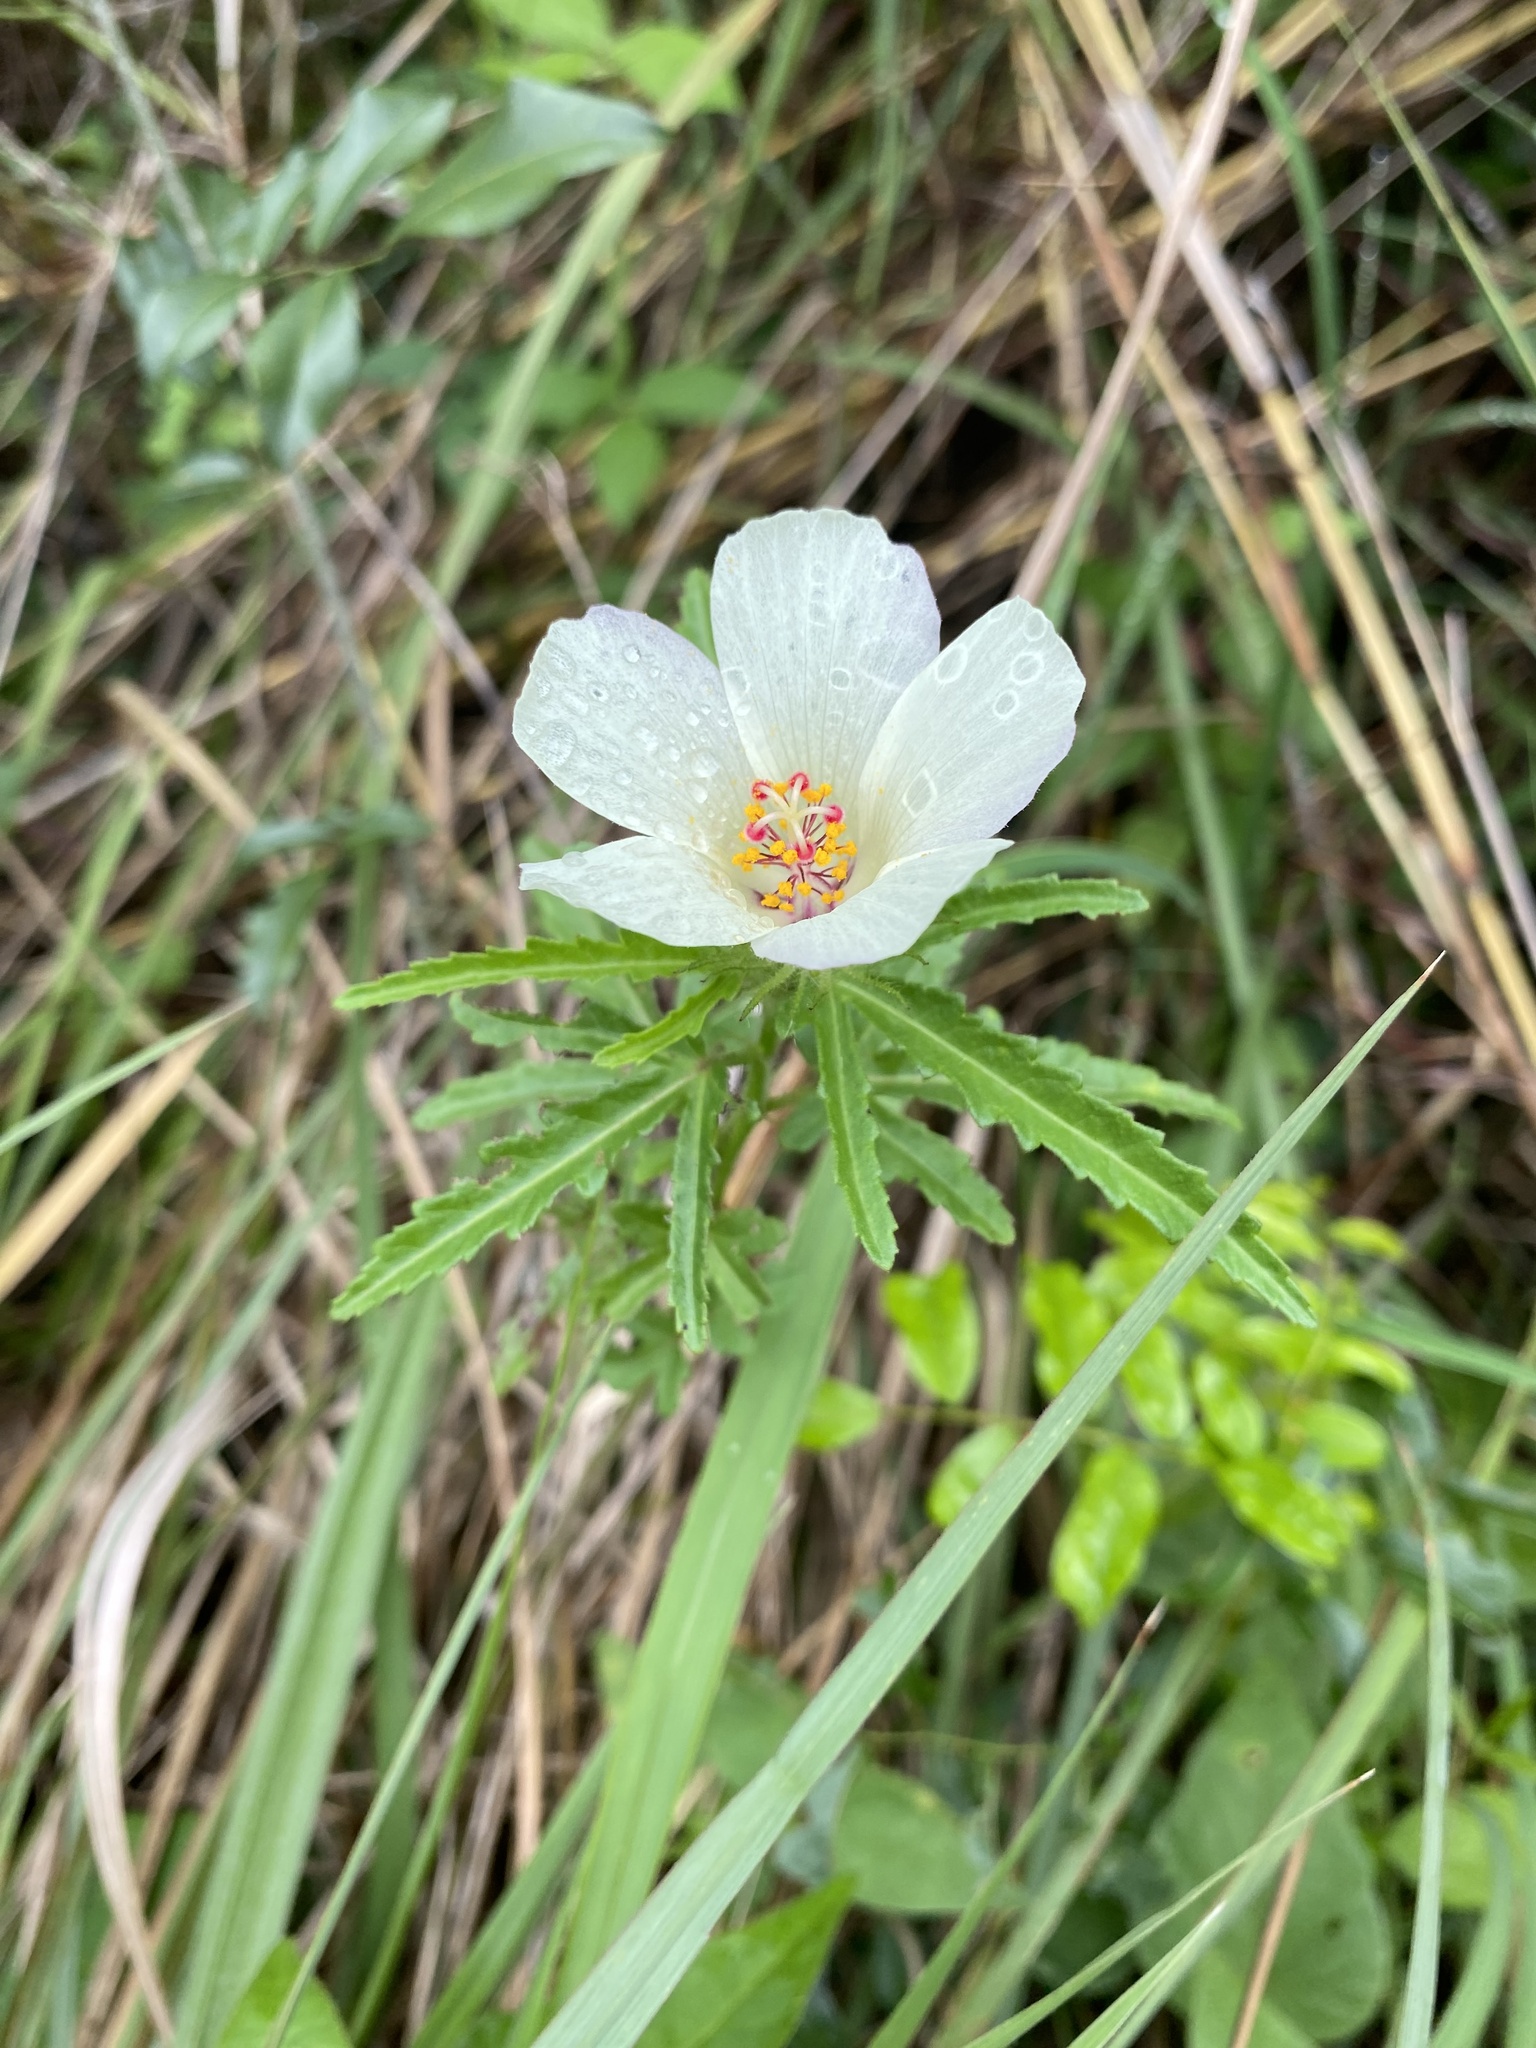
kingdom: Plantae
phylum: Tracheophyta
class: Magnoliopsida
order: Malvales
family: Malvaceae
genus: Hibiscus
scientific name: Hibiscus trionum
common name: Bladder ketmia
